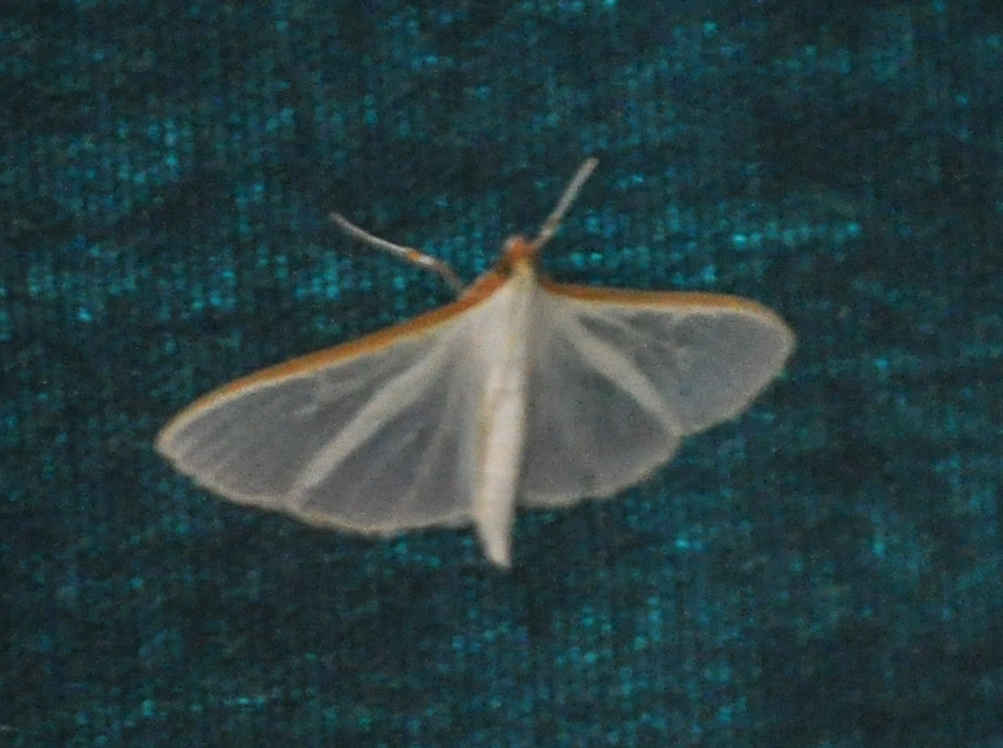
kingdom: Animalia
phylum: Arthropoda
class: Insecta
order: Lepidoptera
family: Crambidae
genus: Palpita
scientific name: Palpita vitrealis
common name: Olive-tree pearl
